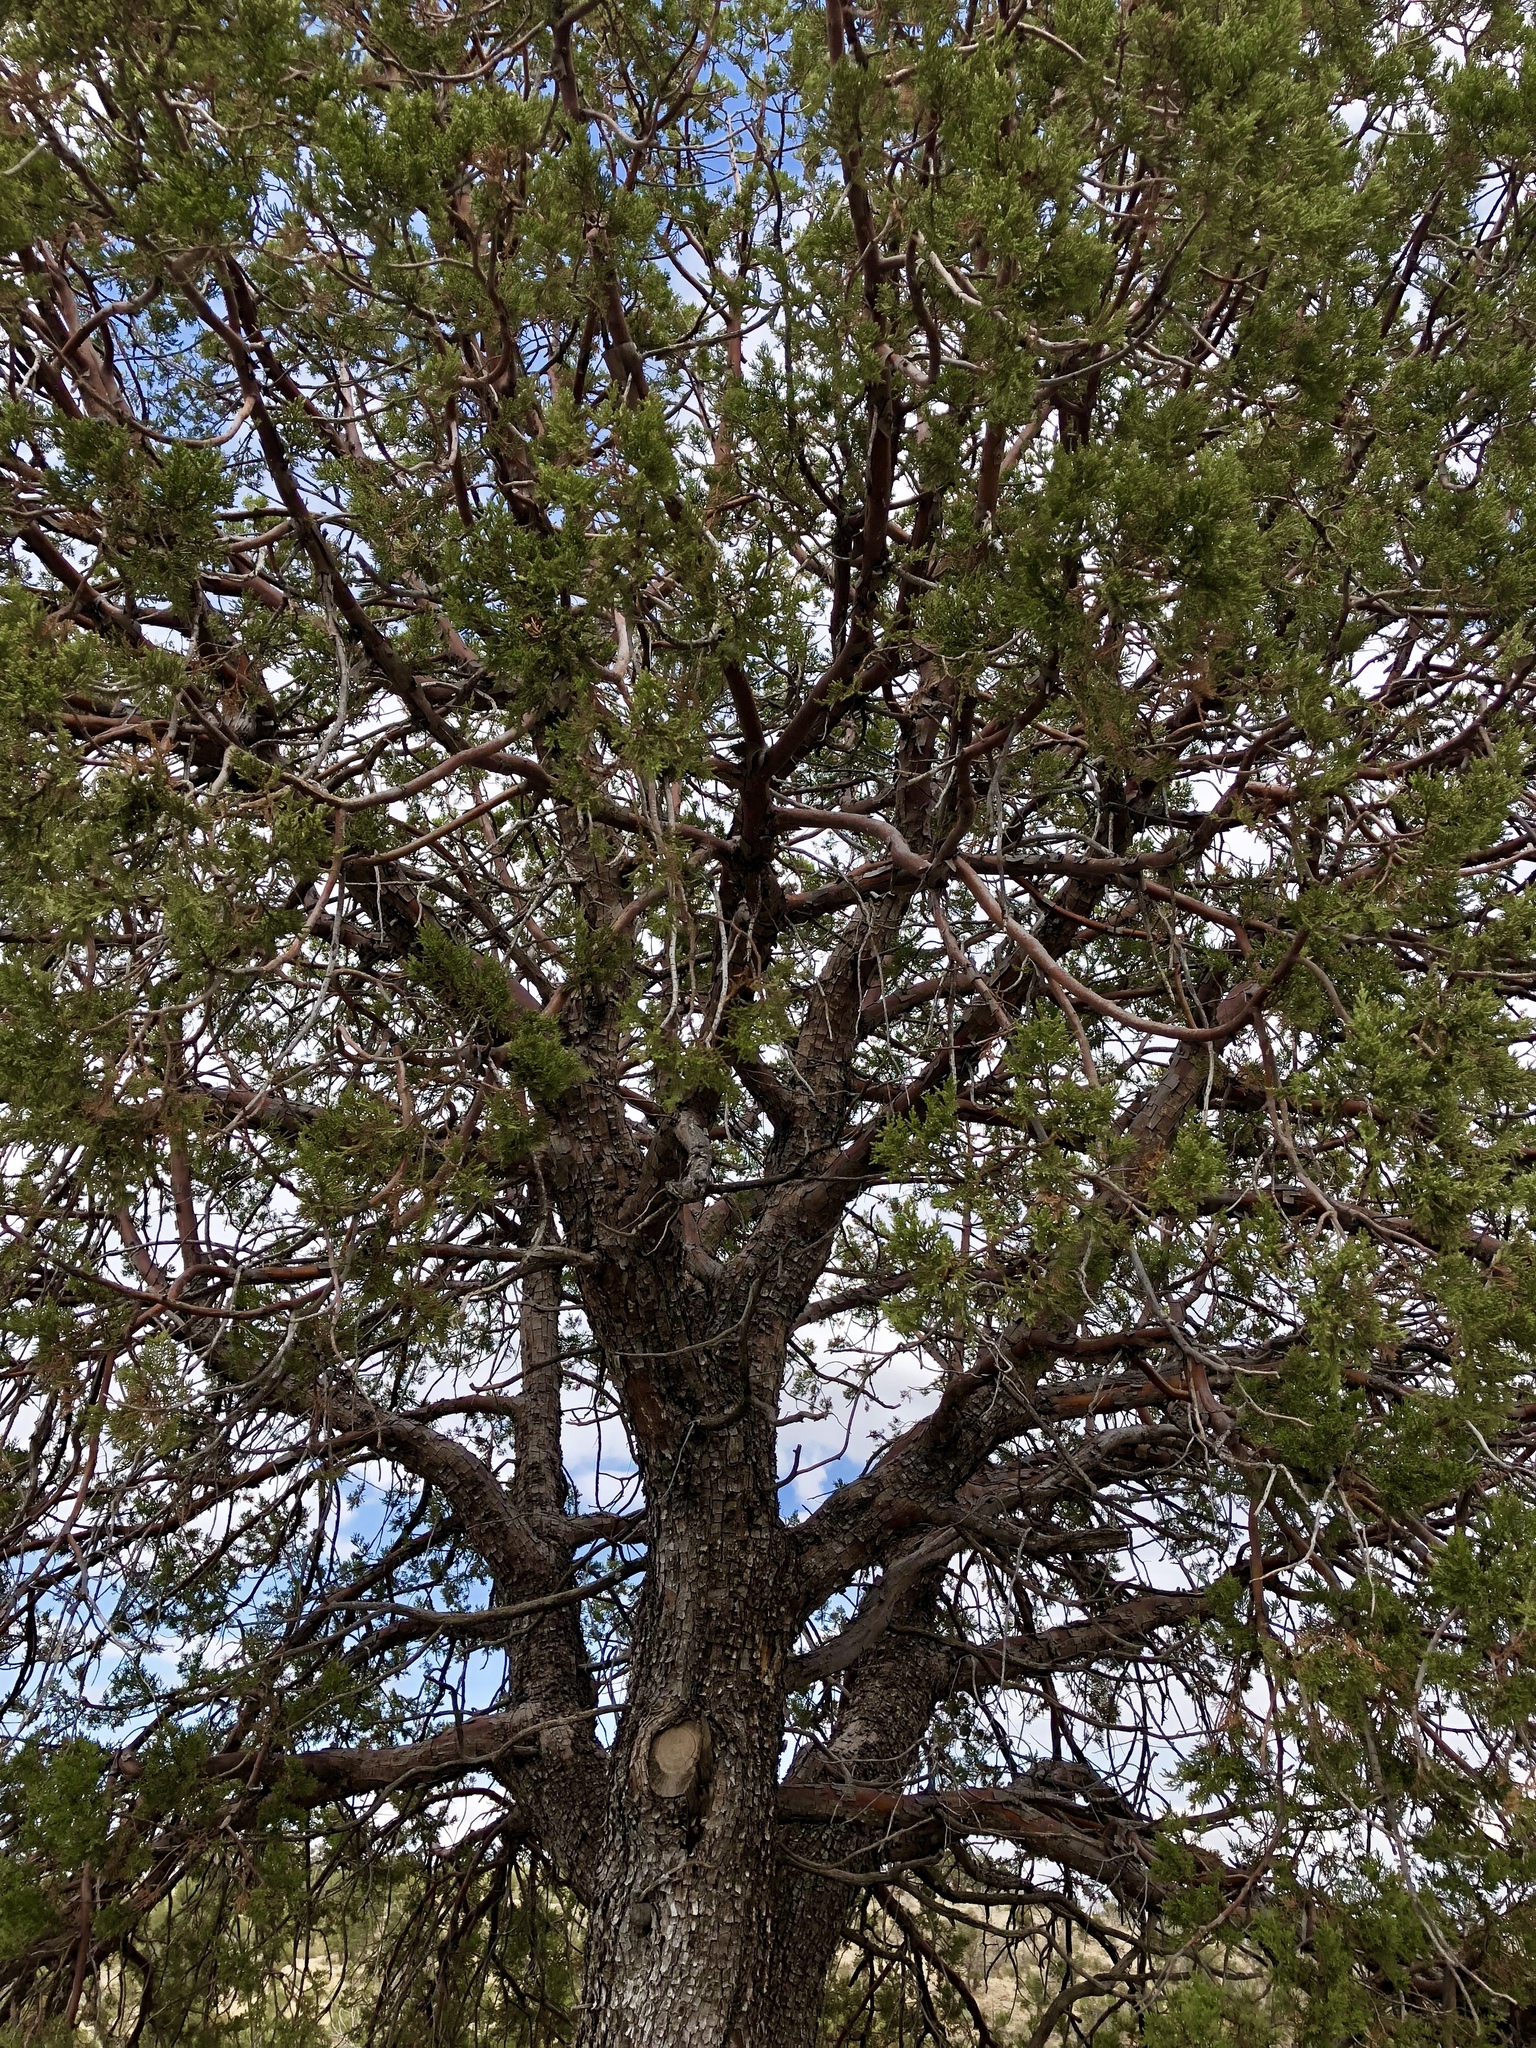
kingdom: Plantae
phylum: Tracheophyta
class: Pinopsida
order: Pinales
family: Cupressaceae
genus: Juniperus
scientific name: Juniperus deppeana
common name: Alligator juniper
